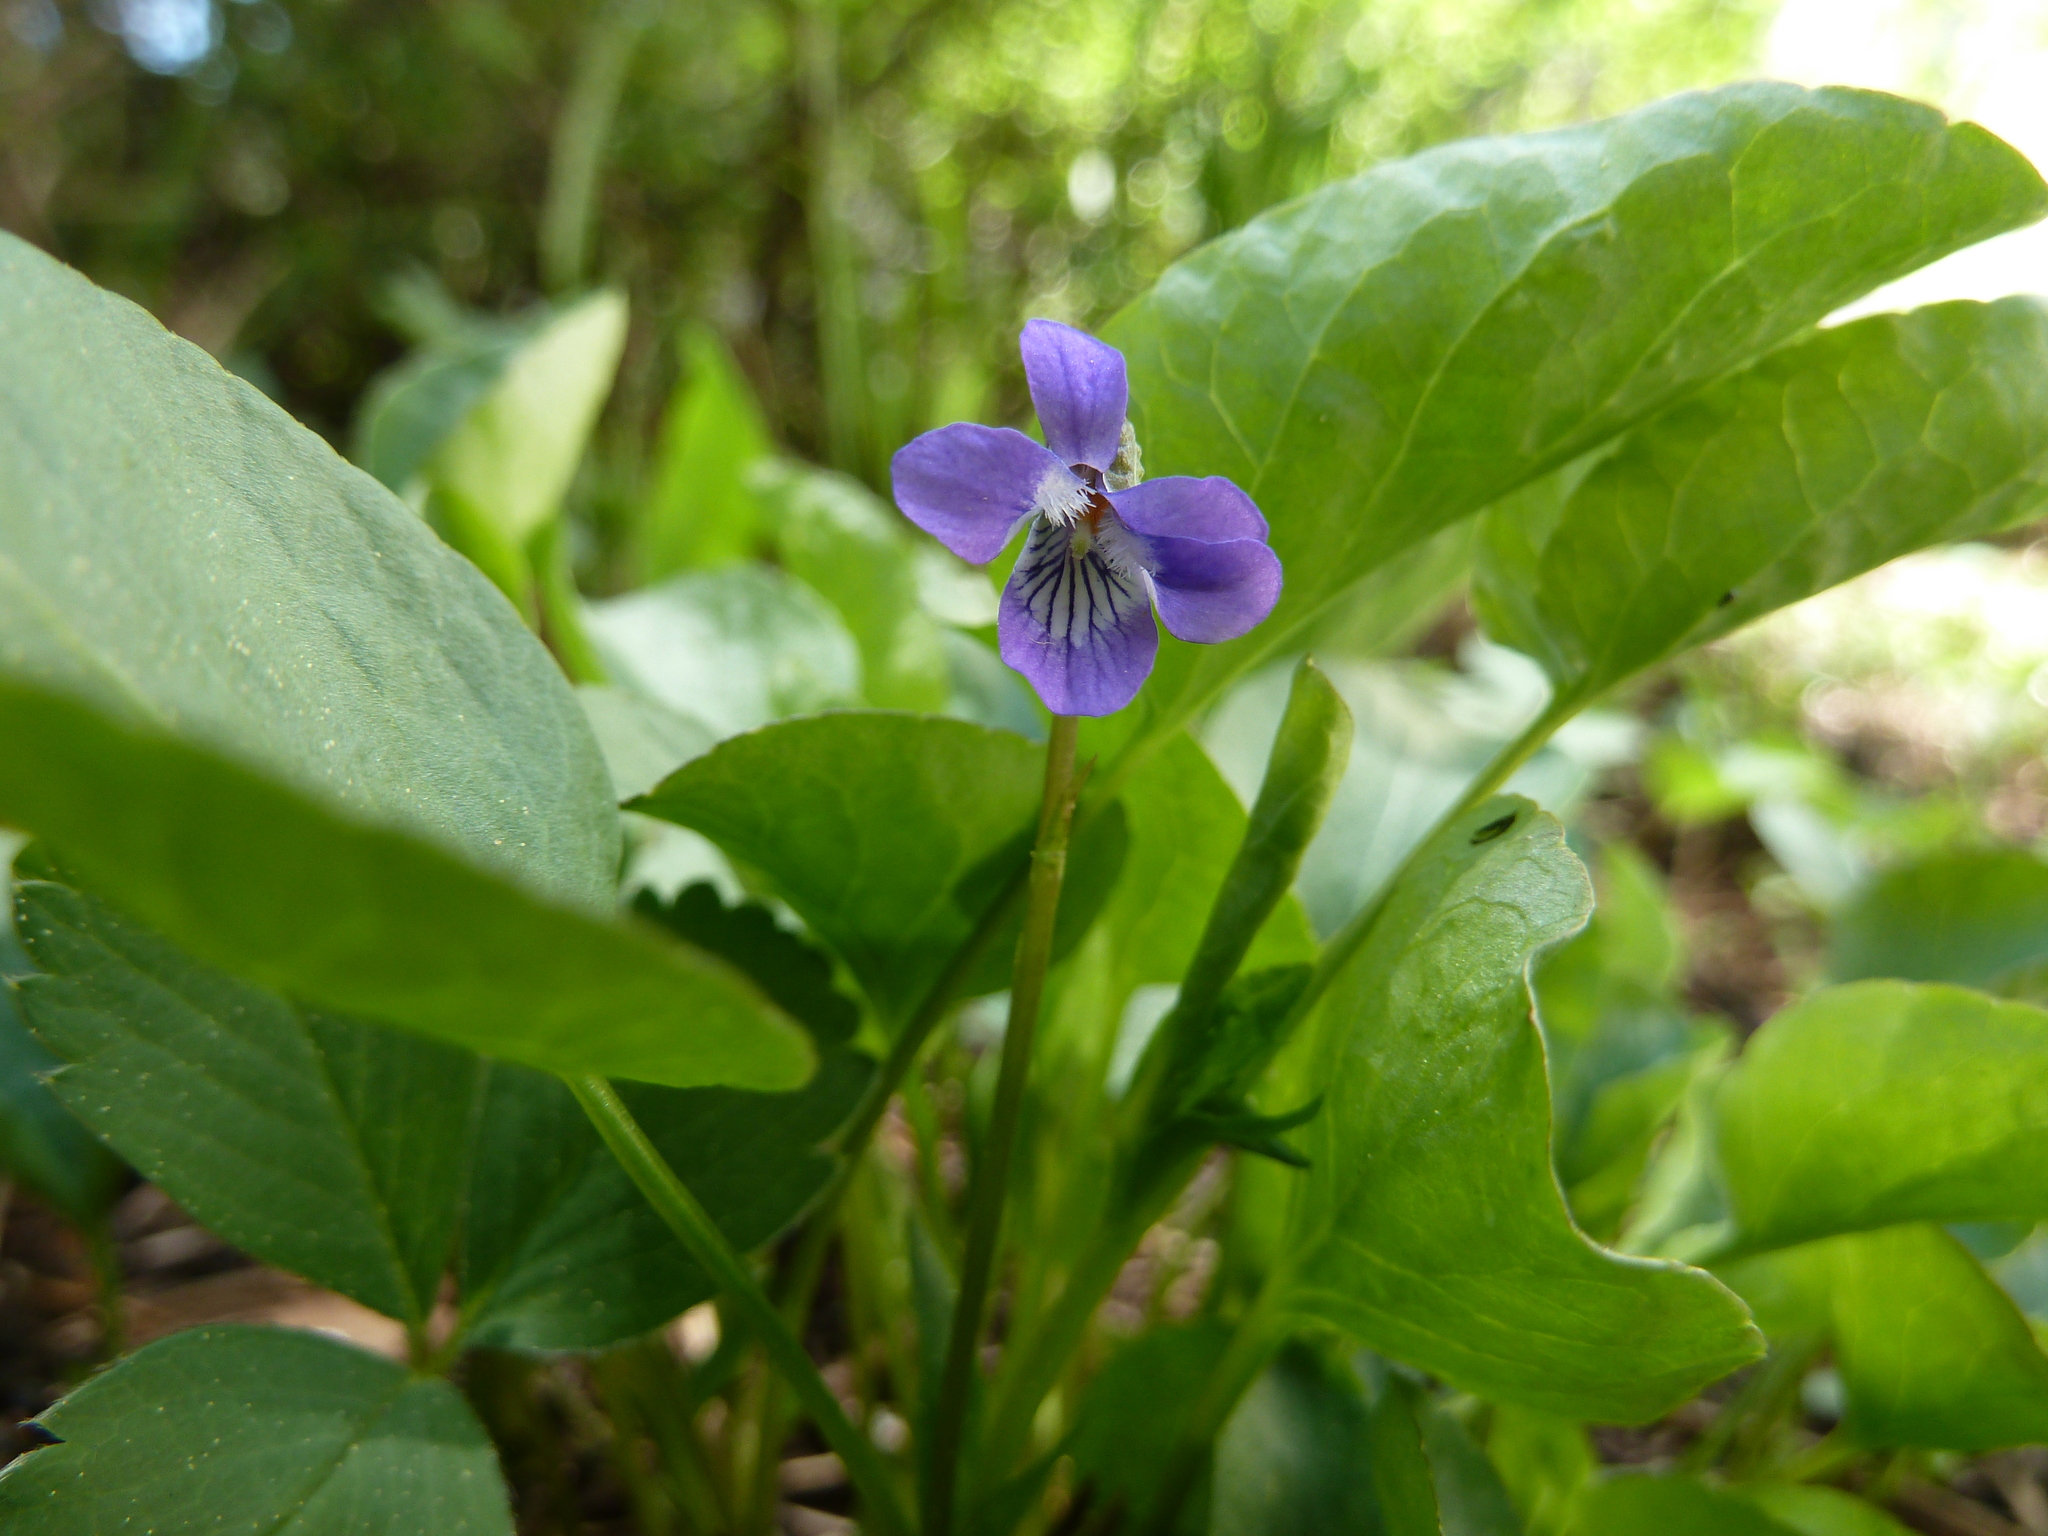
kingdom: Plantae
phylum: Tracheophyta
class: Magnoliopsida
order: Malpighiales
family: Violaceae
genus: Viola
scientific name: Viola adunca
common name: Sand violet
